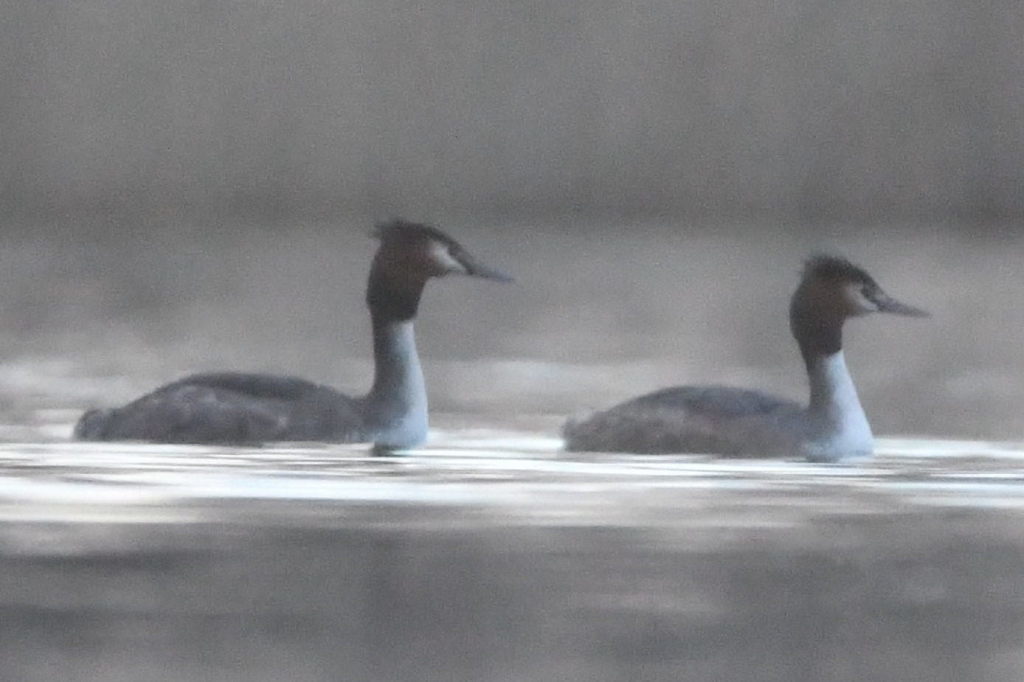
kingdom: Animalia
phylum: Chordata
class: Aves
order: Podicipediformes
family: Podicipedidae
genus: Podiceps
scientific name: Podiceps cristatus
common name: Great crested grebe
